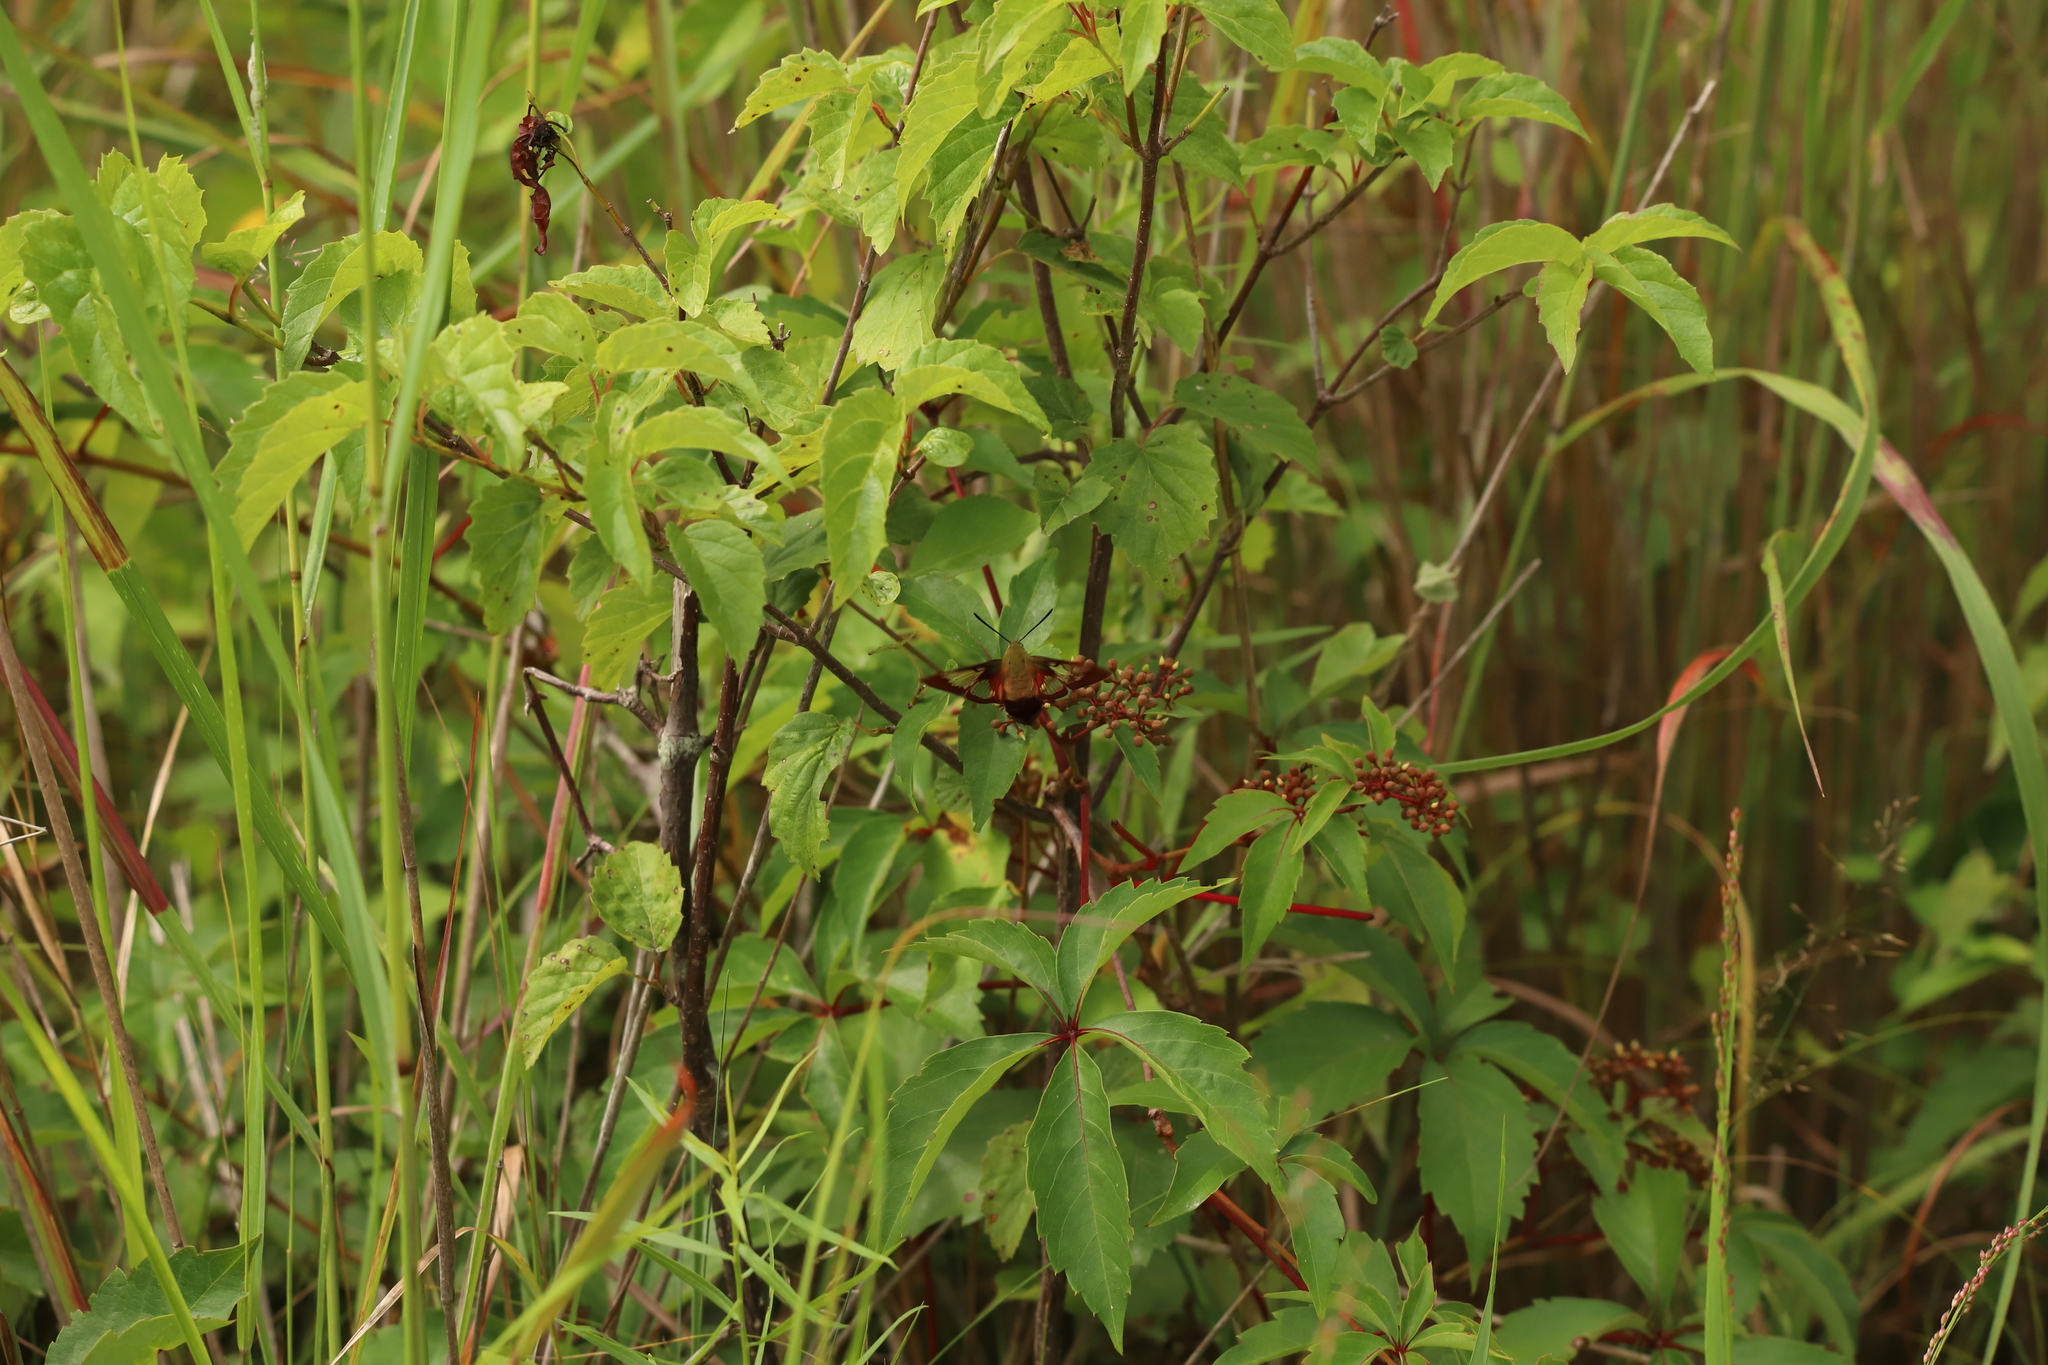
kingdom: Animalia
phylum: Arthropoda
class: Insecta
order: Lepidoptera
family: Sphingidae
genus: Hemaris
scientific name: Hemaris thysbe
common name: Common clear-wing
